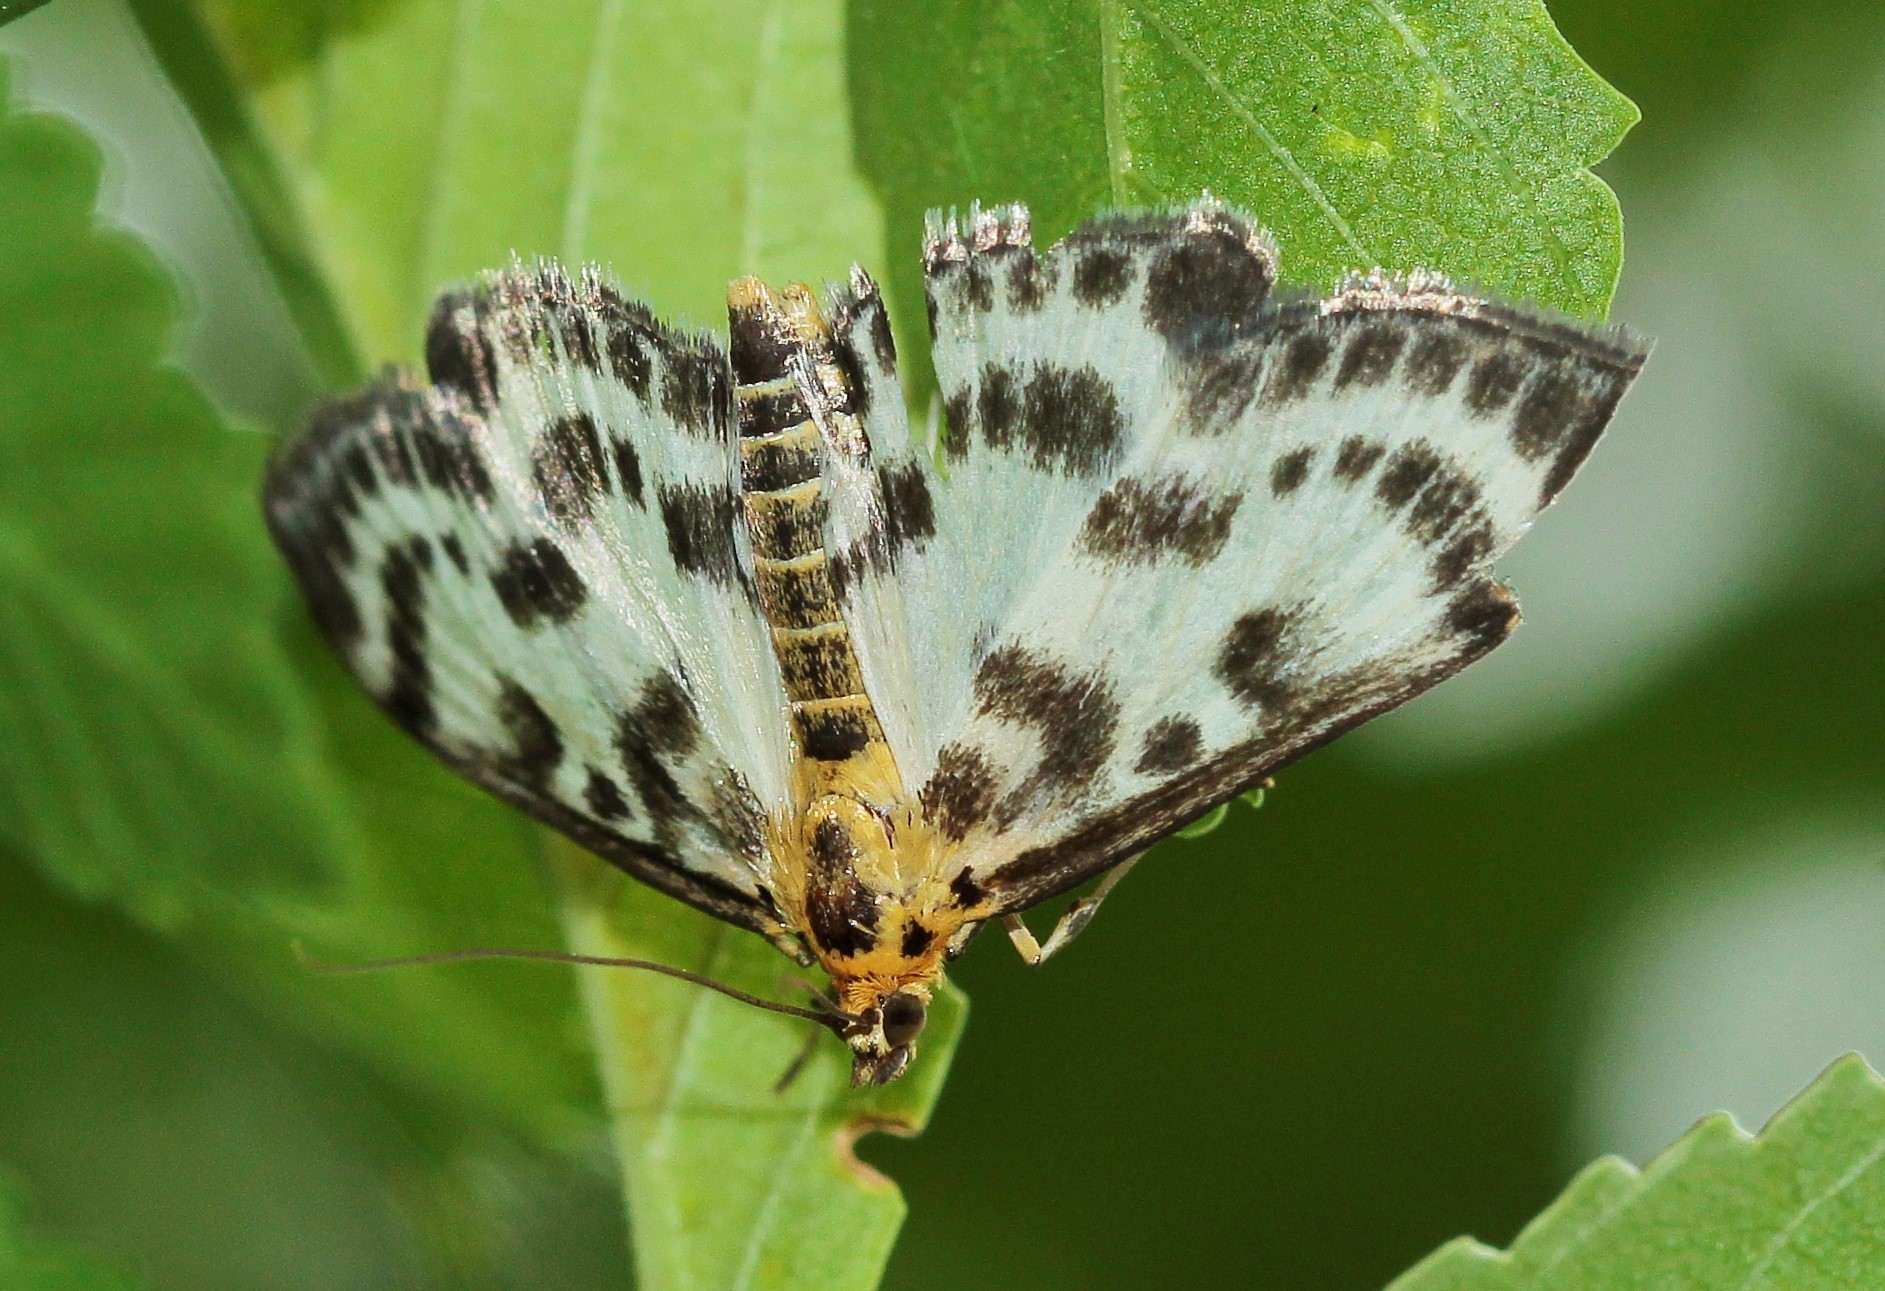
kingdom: Animalia
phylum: Arthropoda
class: Insecta
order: Lepidoptera
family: Crambidae
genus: Anania
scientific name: Anania hortulata
